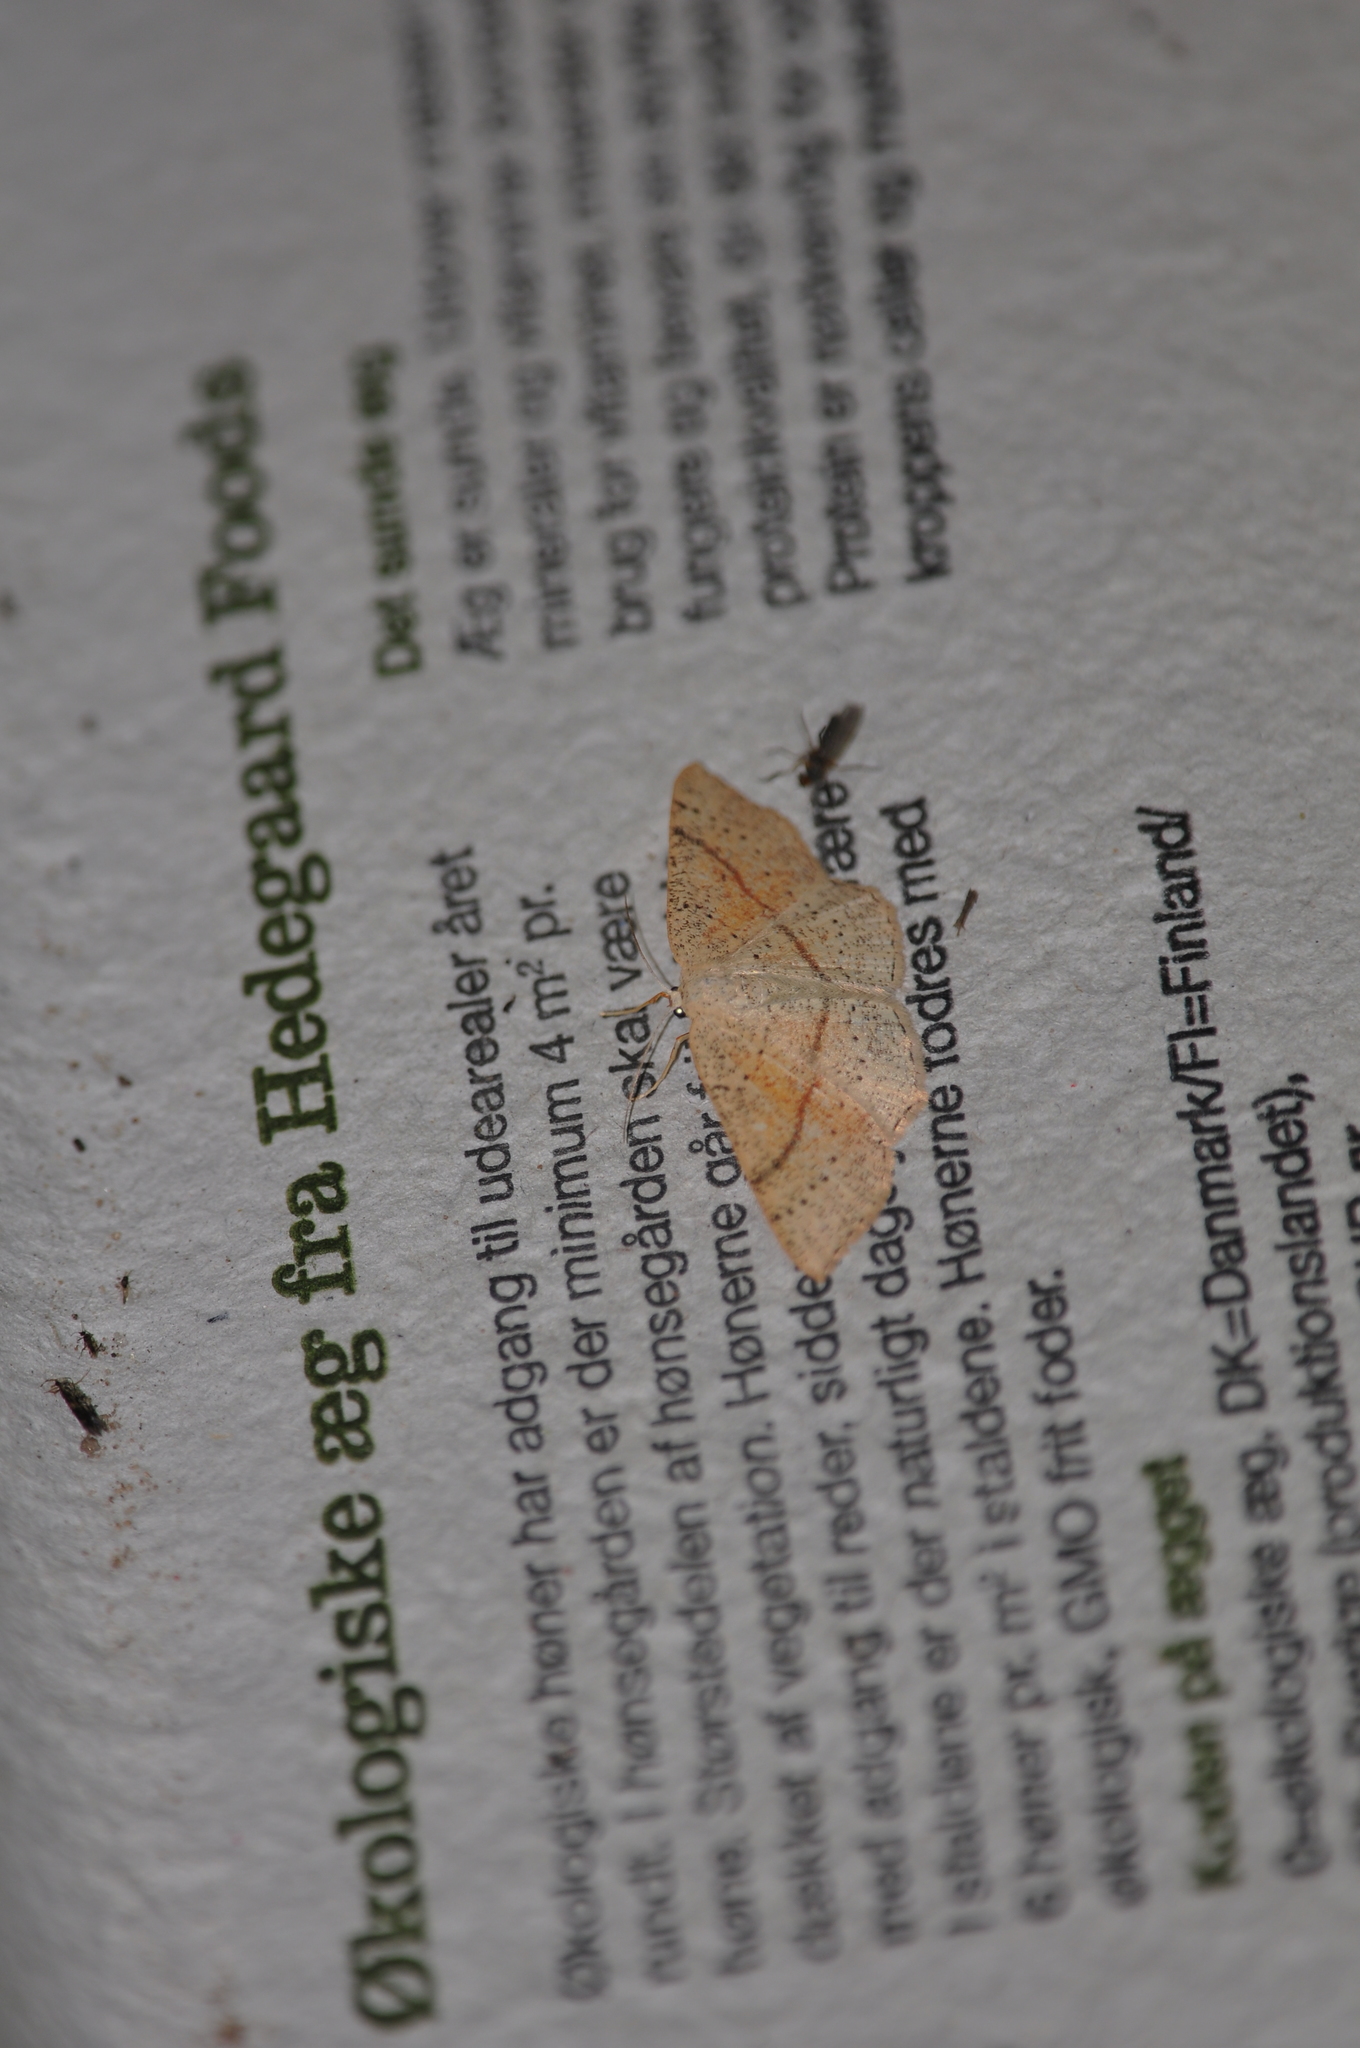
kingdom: Animalia
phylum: Arthropoda
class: Insecta
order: Lepidoptera
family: Geometridae
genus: Cyclophora
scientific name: Cyclophora punctaria
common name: Maiden's blush
